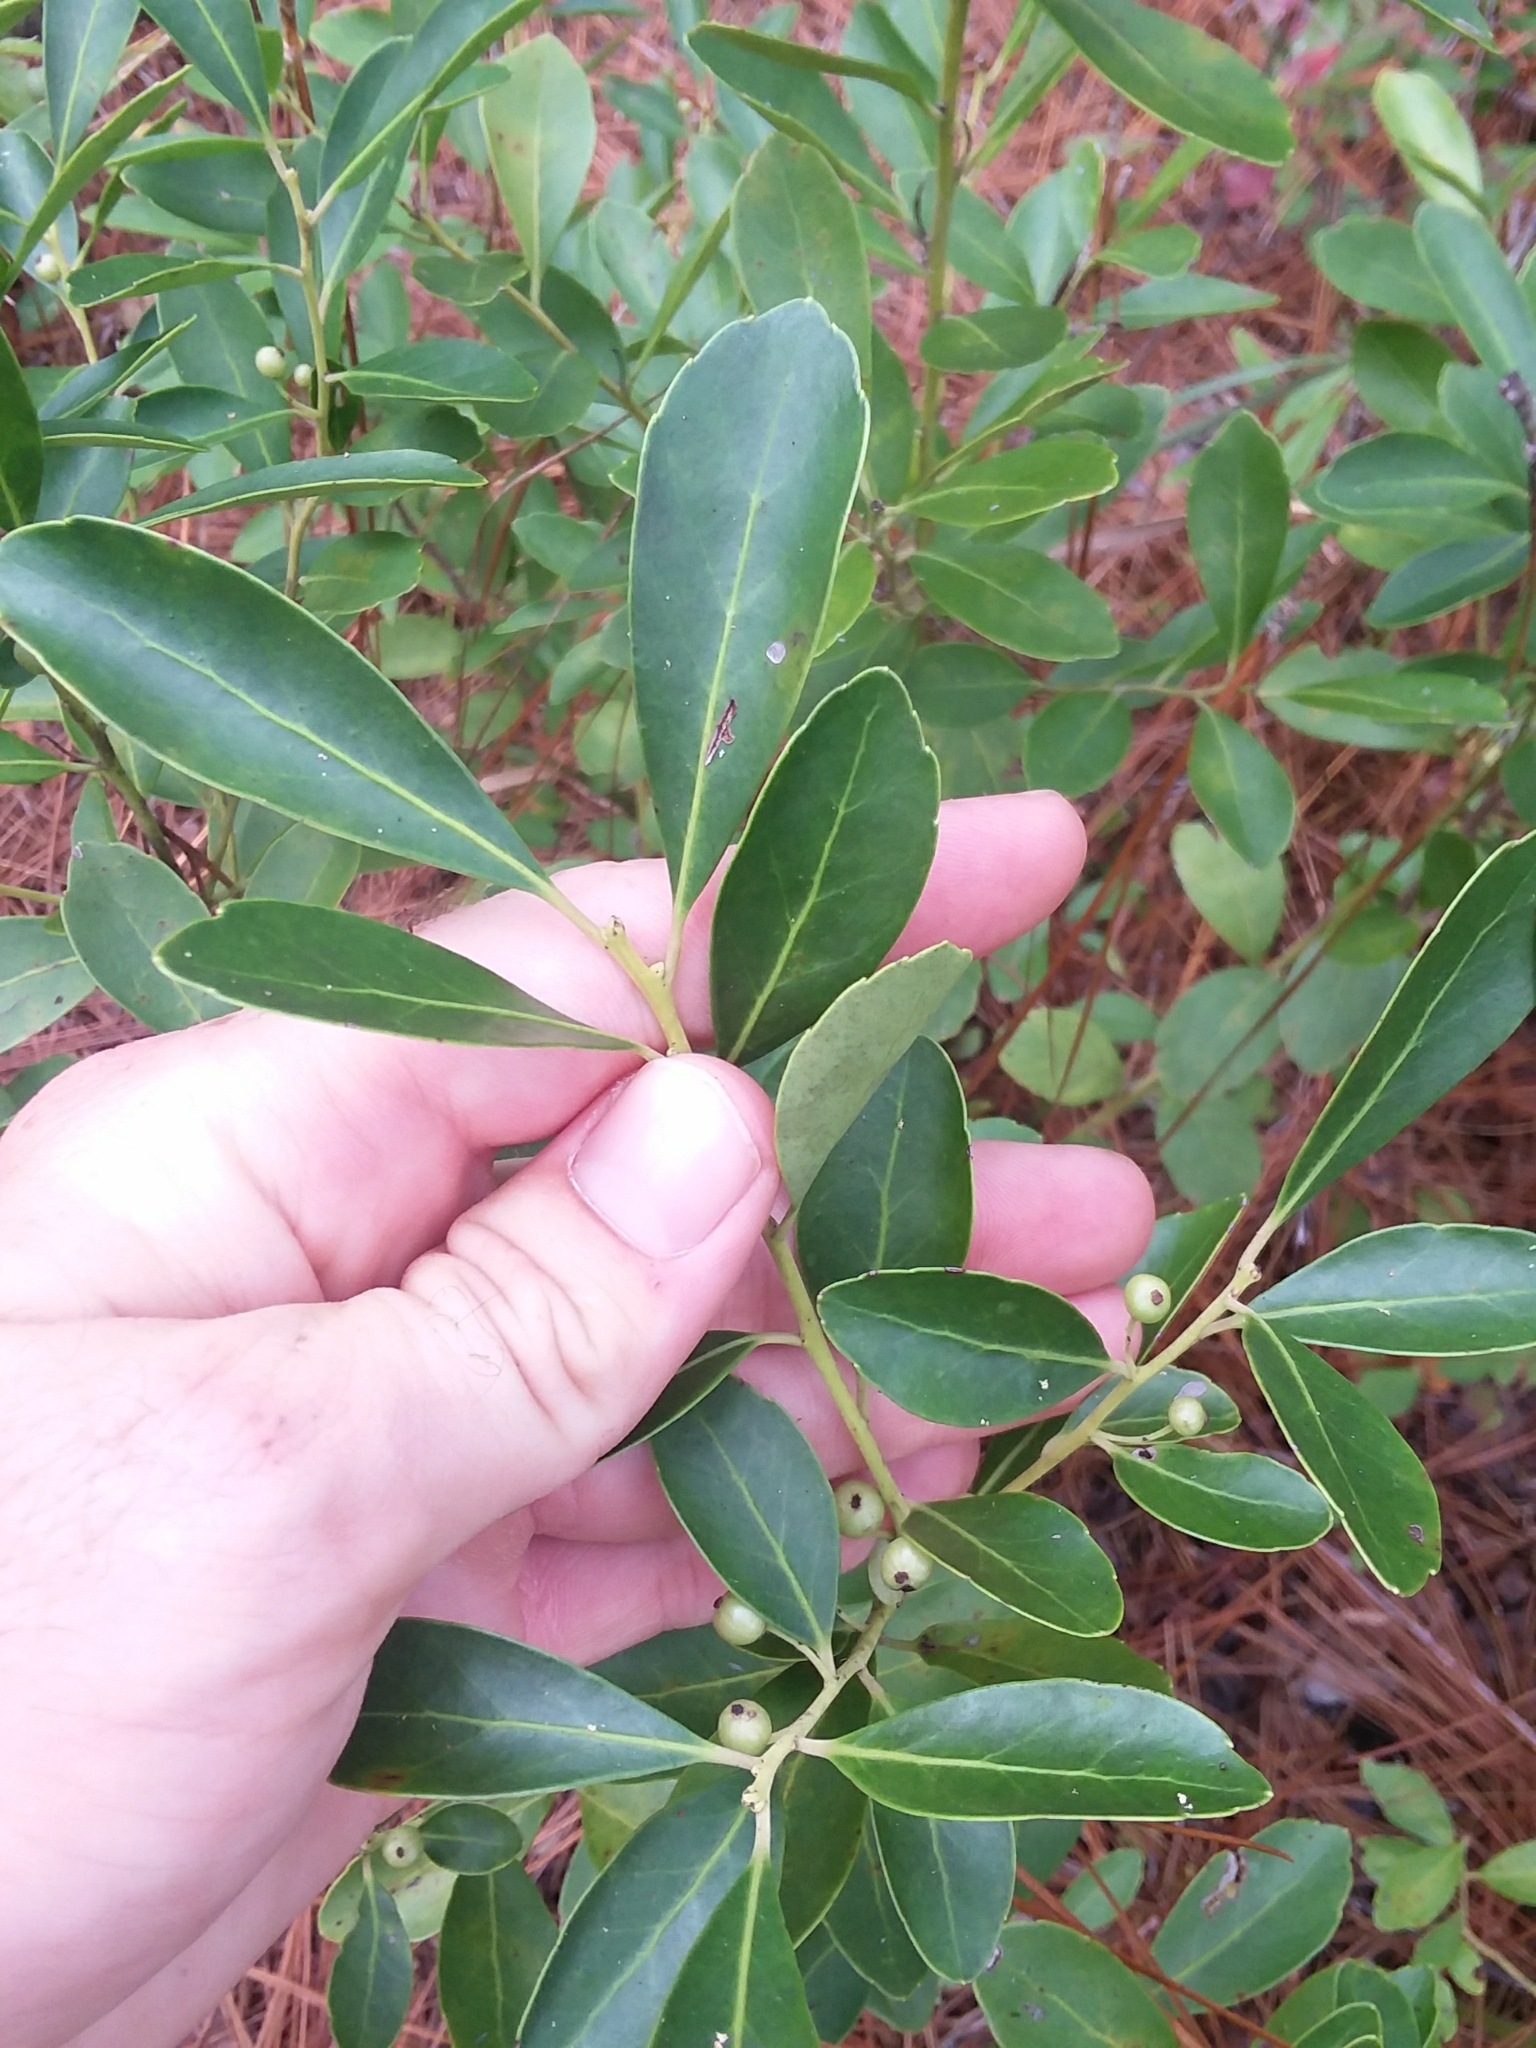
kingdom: Plantae
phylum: Tracheophyta
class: Magnoliopsida
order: Aquifoliales
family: Aquifoliaceae
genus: Ilex
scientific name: Ilex glabra
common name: Bitter gallberry
